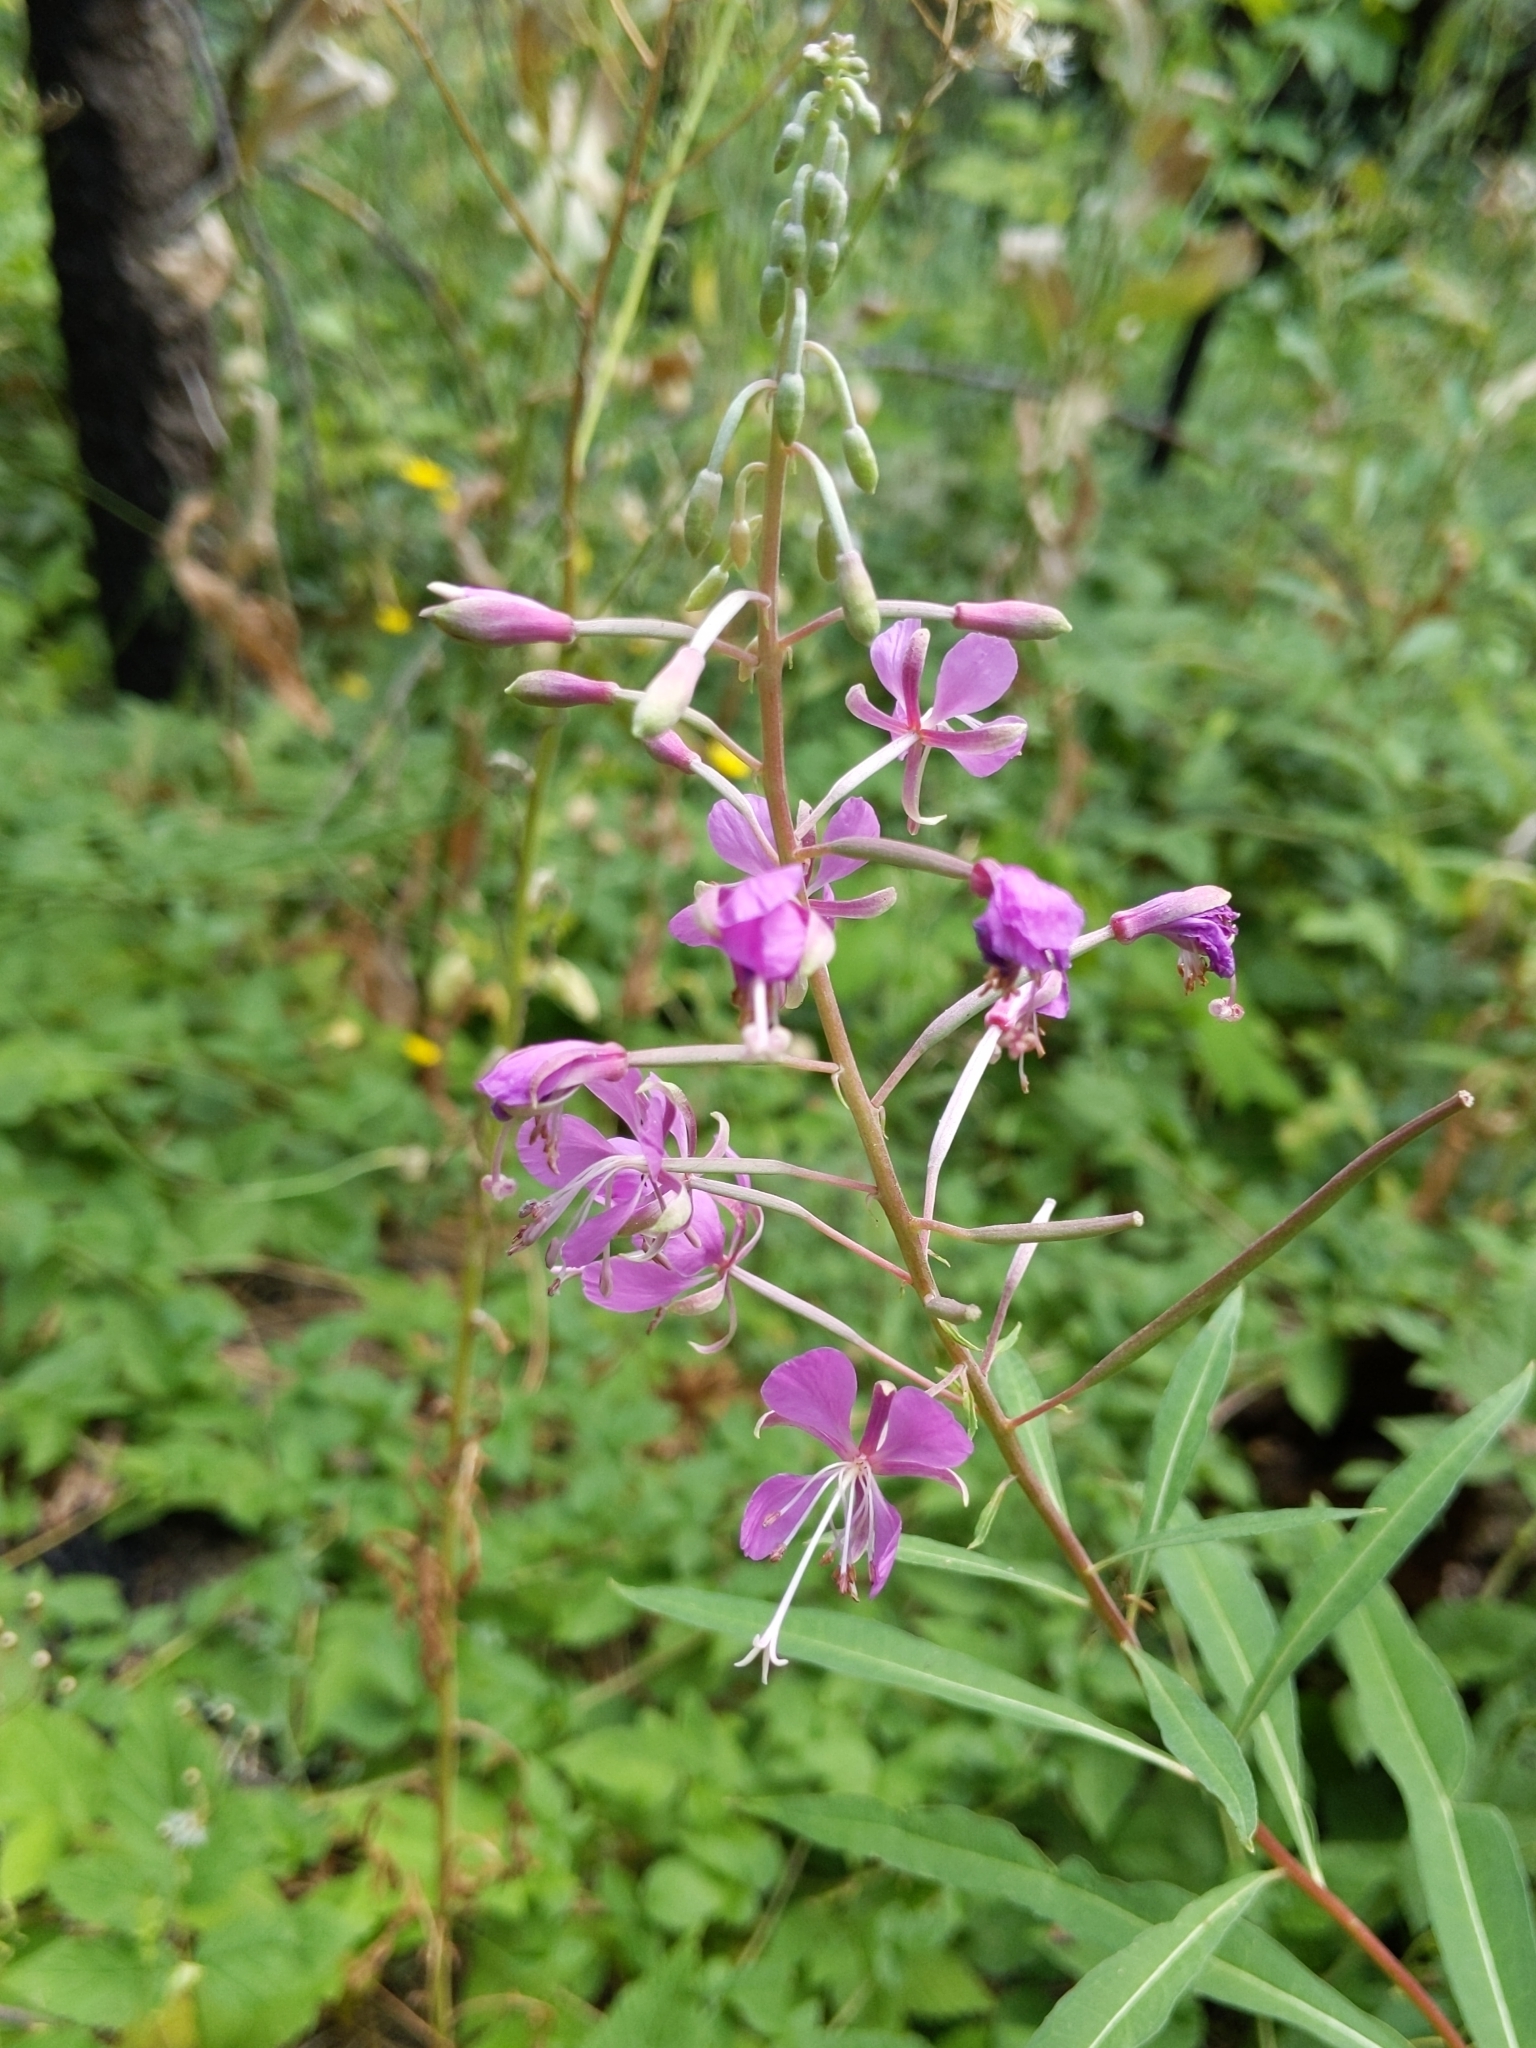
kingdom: Plantae
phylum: Tracheophyta
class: Magnoliopsida
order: Myrtales
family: Onagraceae
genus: Chamaenerion
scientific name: Chamaenerion angustifolium
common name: Fireweed
